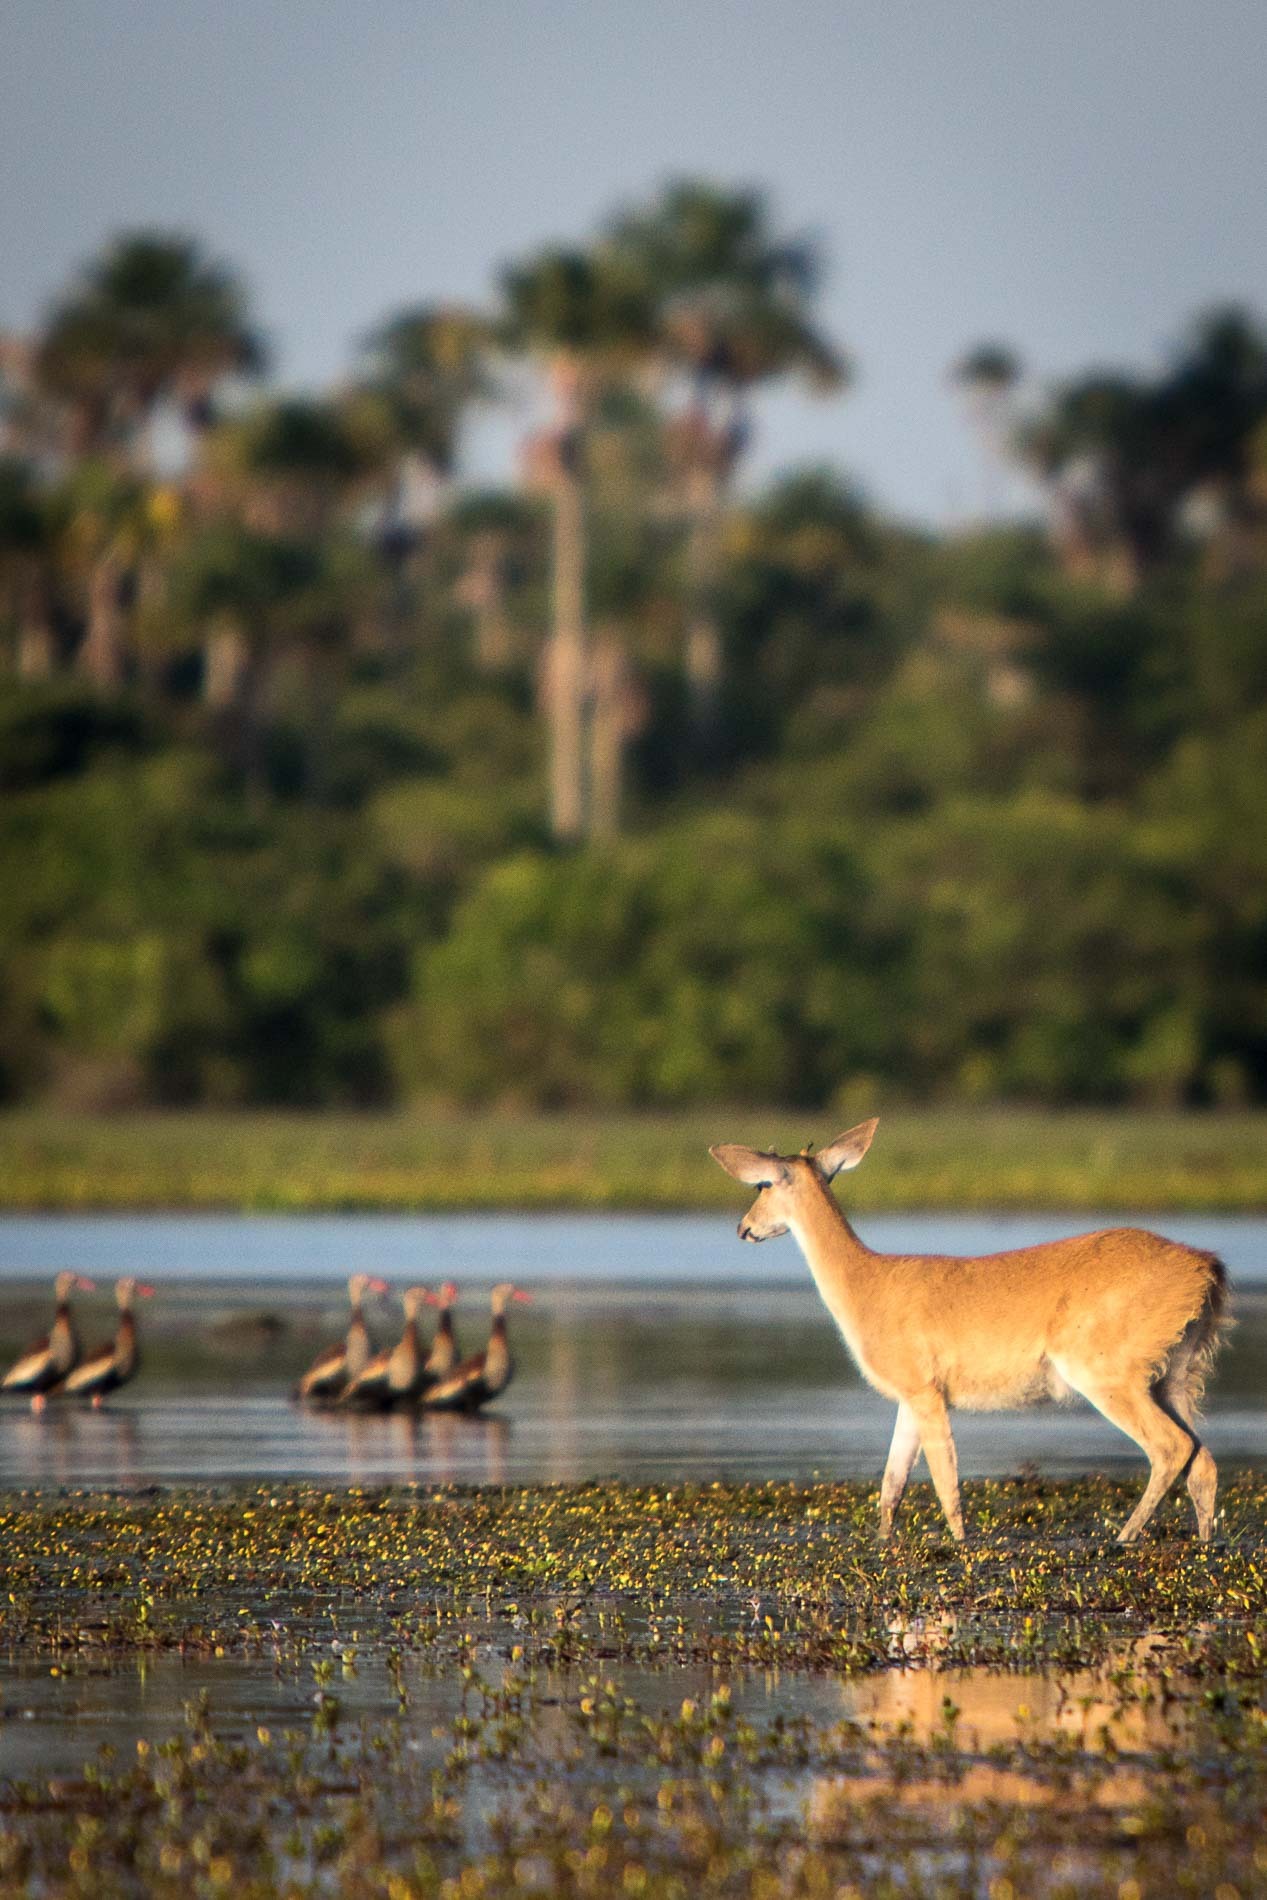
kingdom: Animalia
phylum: Chordata
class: Mammalia
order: Artiodactyla
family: Cervidae
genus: Odocoileus
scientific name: Odocoileus virginianus
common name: White-tailed deer
